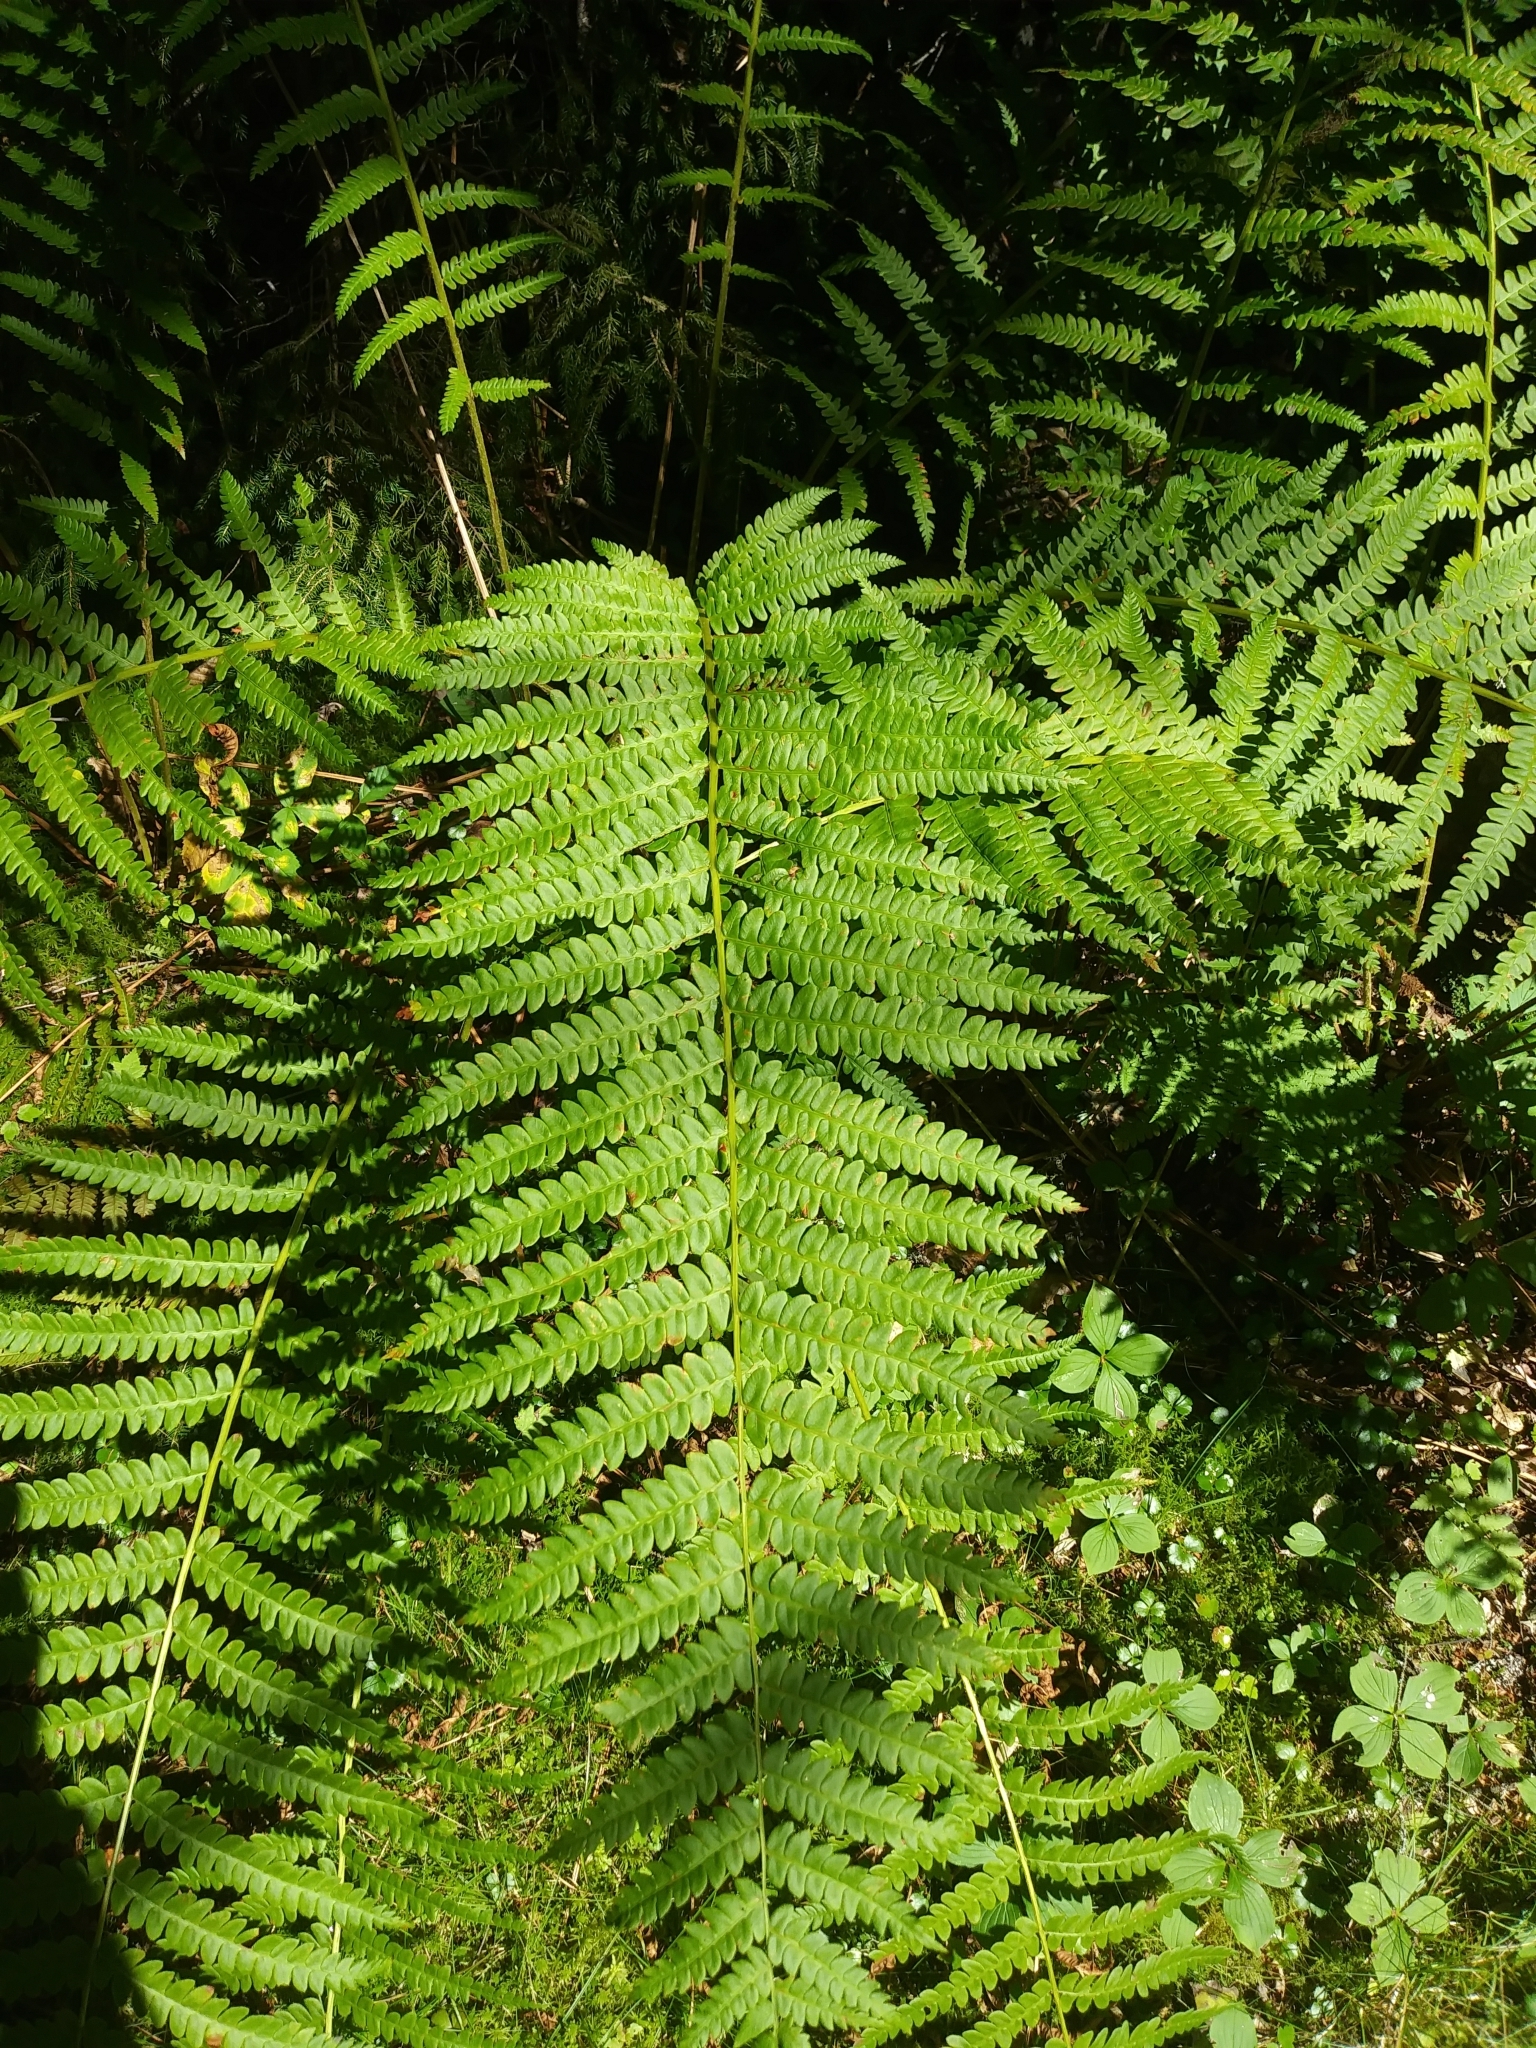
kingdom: Plantae
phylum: Tracheophyta
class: Polypodiopsida
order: Osmundales
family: Osmundaceae
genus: Osmundastrum
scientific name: Osmundastrum cinnamomeum
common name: Cinnamon fern
